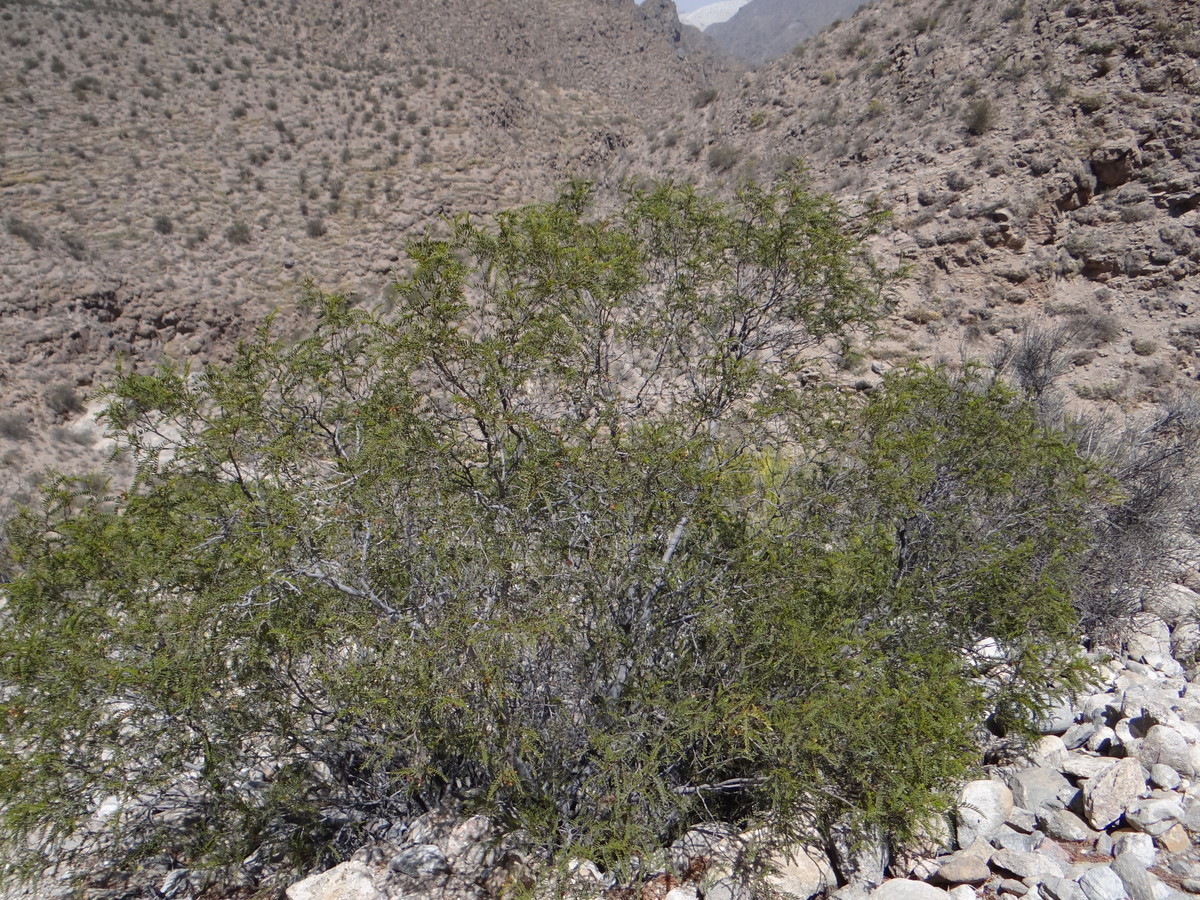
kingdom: Plantae
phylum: Tracheophyta
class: Magnoliopsida
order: Fabales
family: Fabaceae
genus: Zuccagnia
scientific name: Zuccagnia punctata
